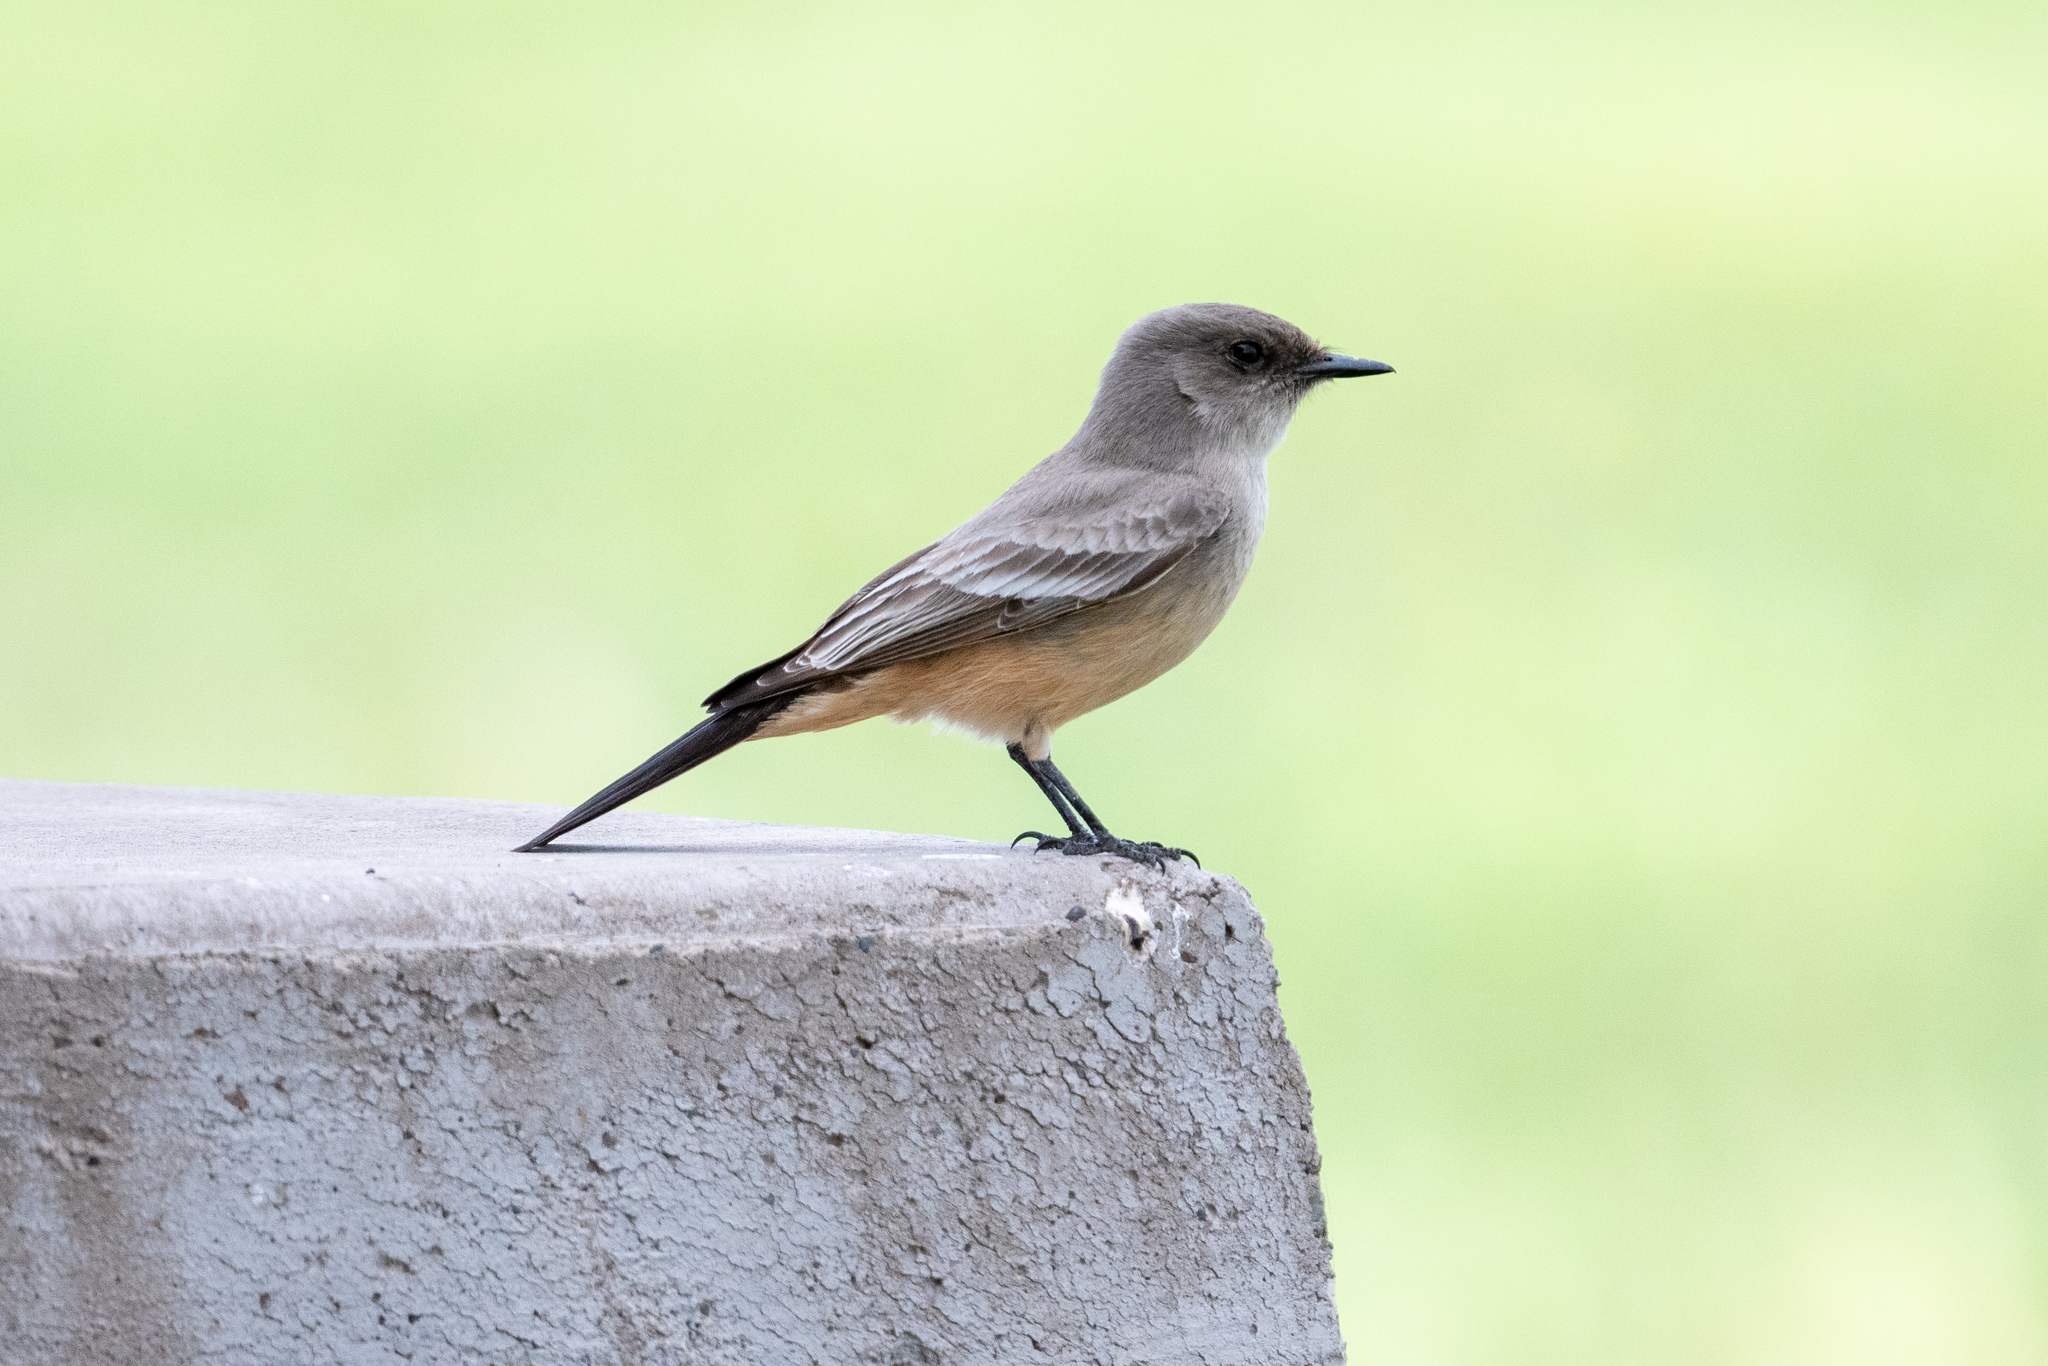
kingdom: Animalia
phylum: Chordata
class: Aves
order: Passeriformes
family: Tyrannidae
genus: Sayornis
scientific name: Sayornis saya
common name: Say's phoebe
